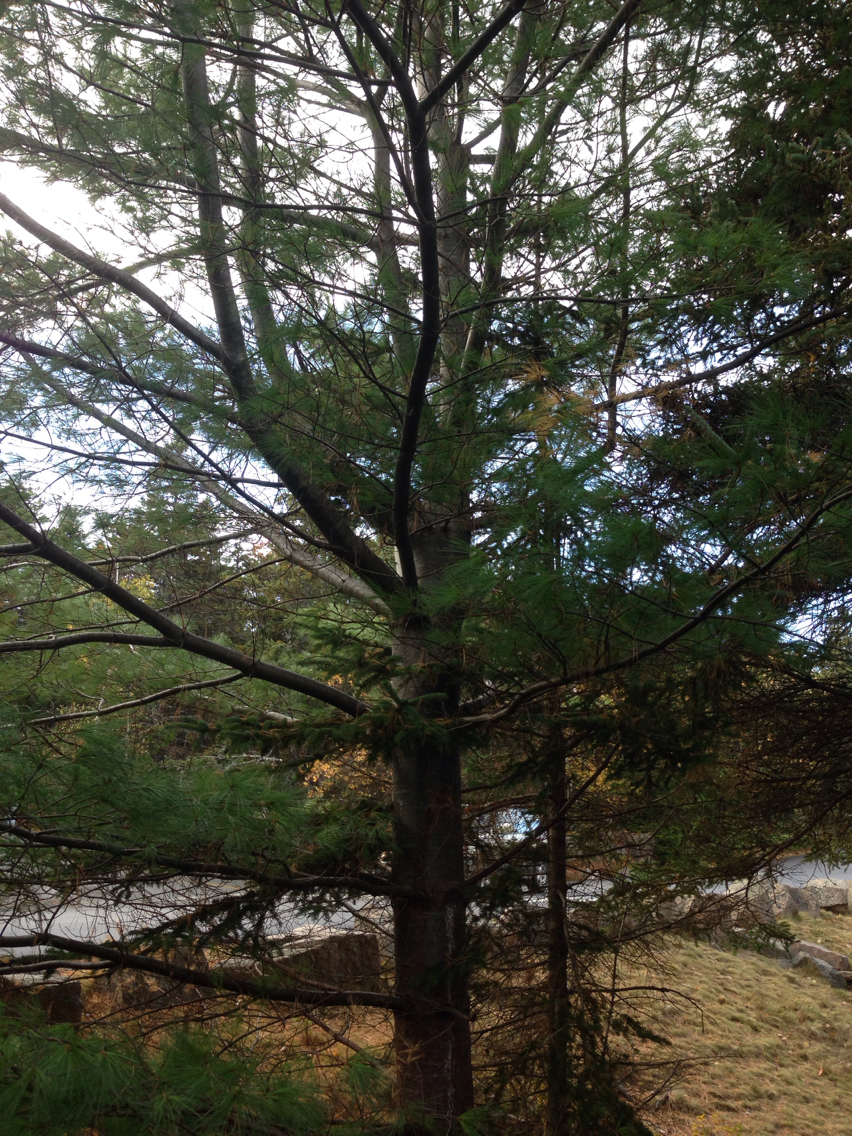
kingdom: Plantae
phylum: Tracheophyta
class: Pinopsida
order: Pinales
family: Pinaceae
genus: Pinus
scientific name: Pinus strobus
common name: Weymouth pine
